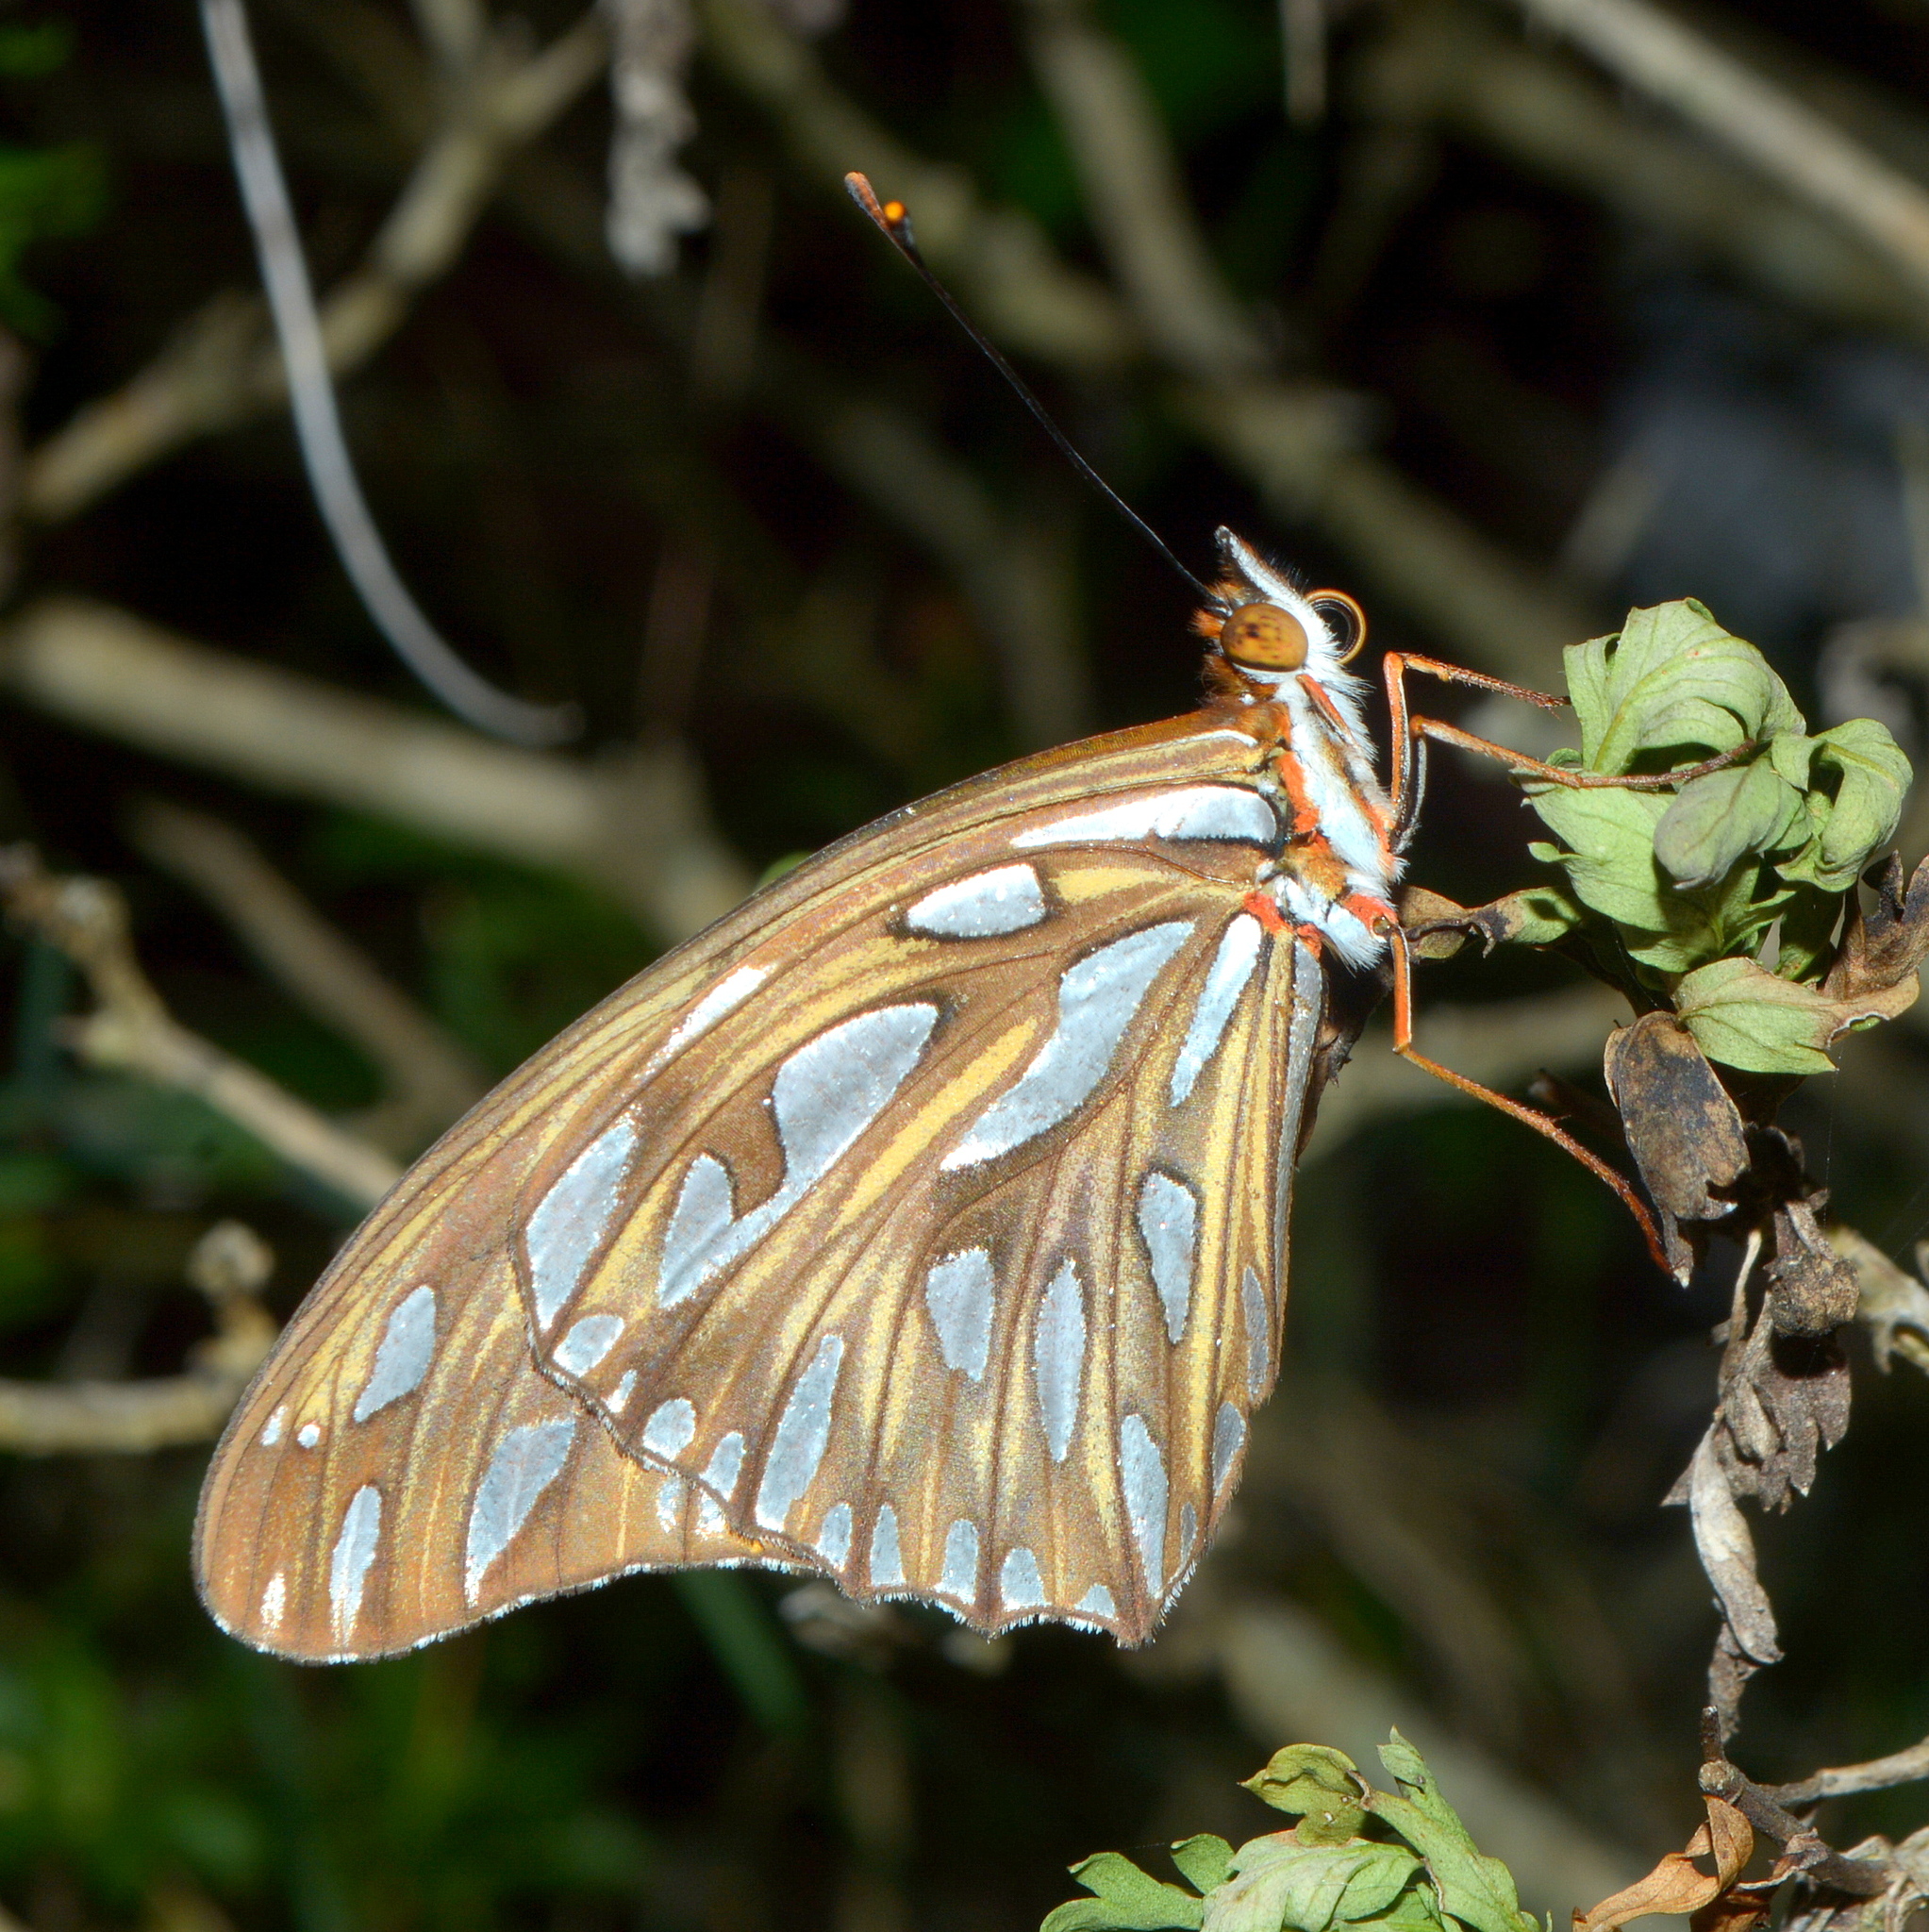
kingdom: Animalia
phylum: Arthropoda
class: Insecta
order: Lepidoptera
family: Nymphalidae
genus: Dione
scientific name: Dione vanillae
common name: Gulf fritillary
